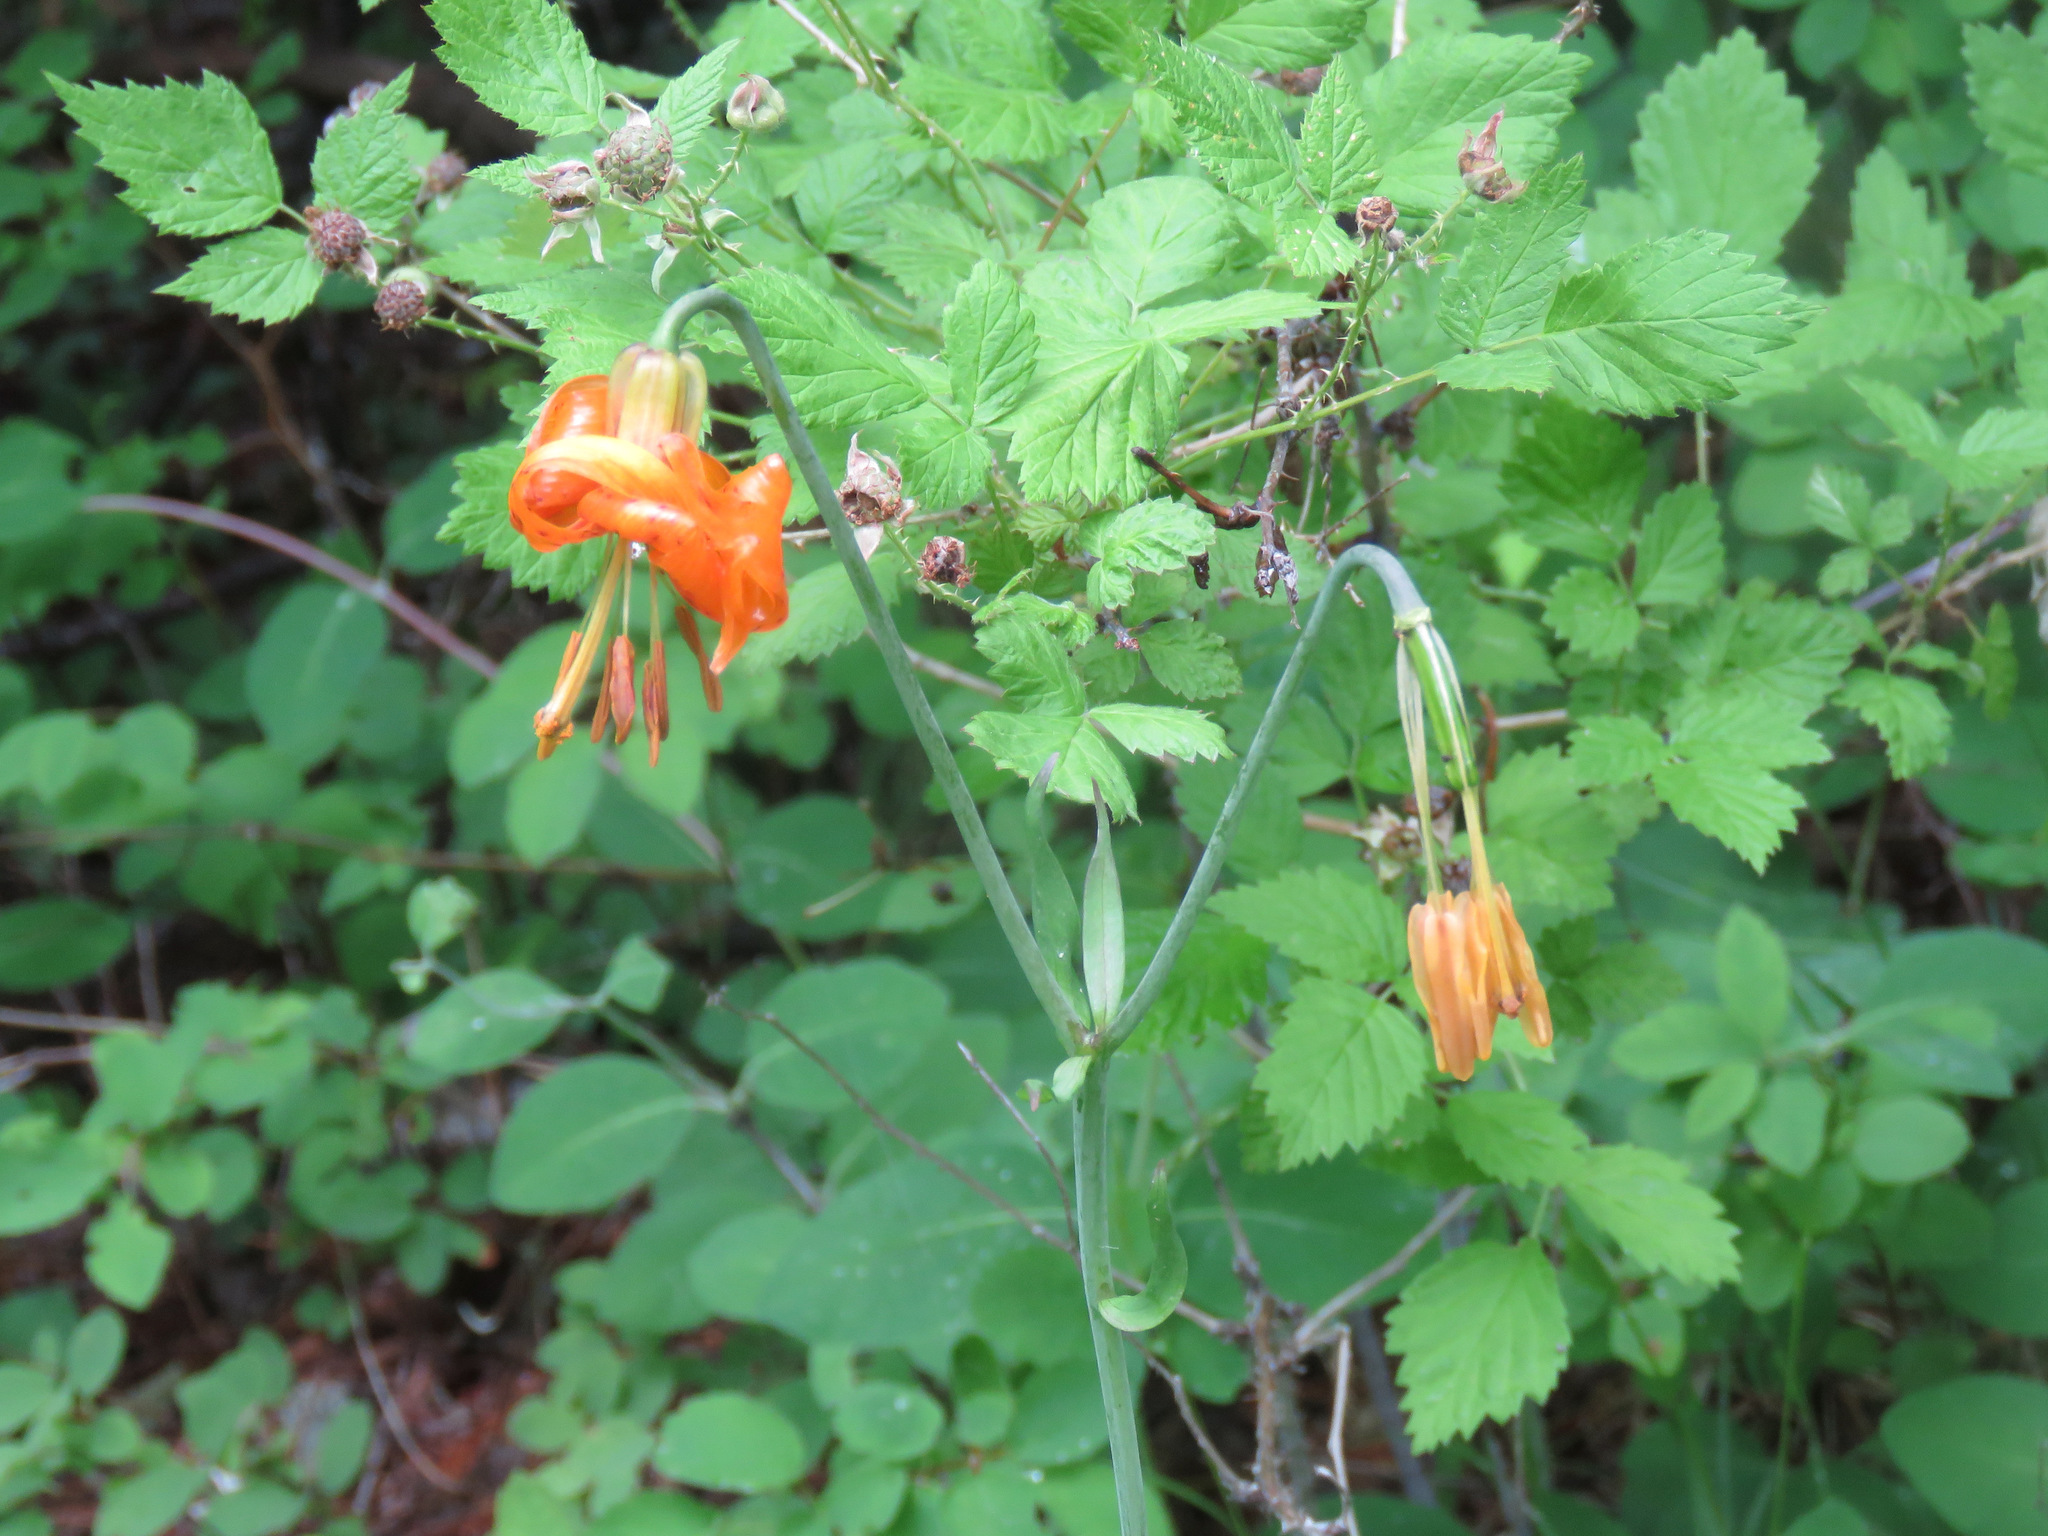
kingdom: Plantae
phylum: Tracheophyta
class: Liliopsida
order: Liliales
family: Liliaceae
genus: Lilium
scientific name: Lilium columbianum
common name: Columbia lily
